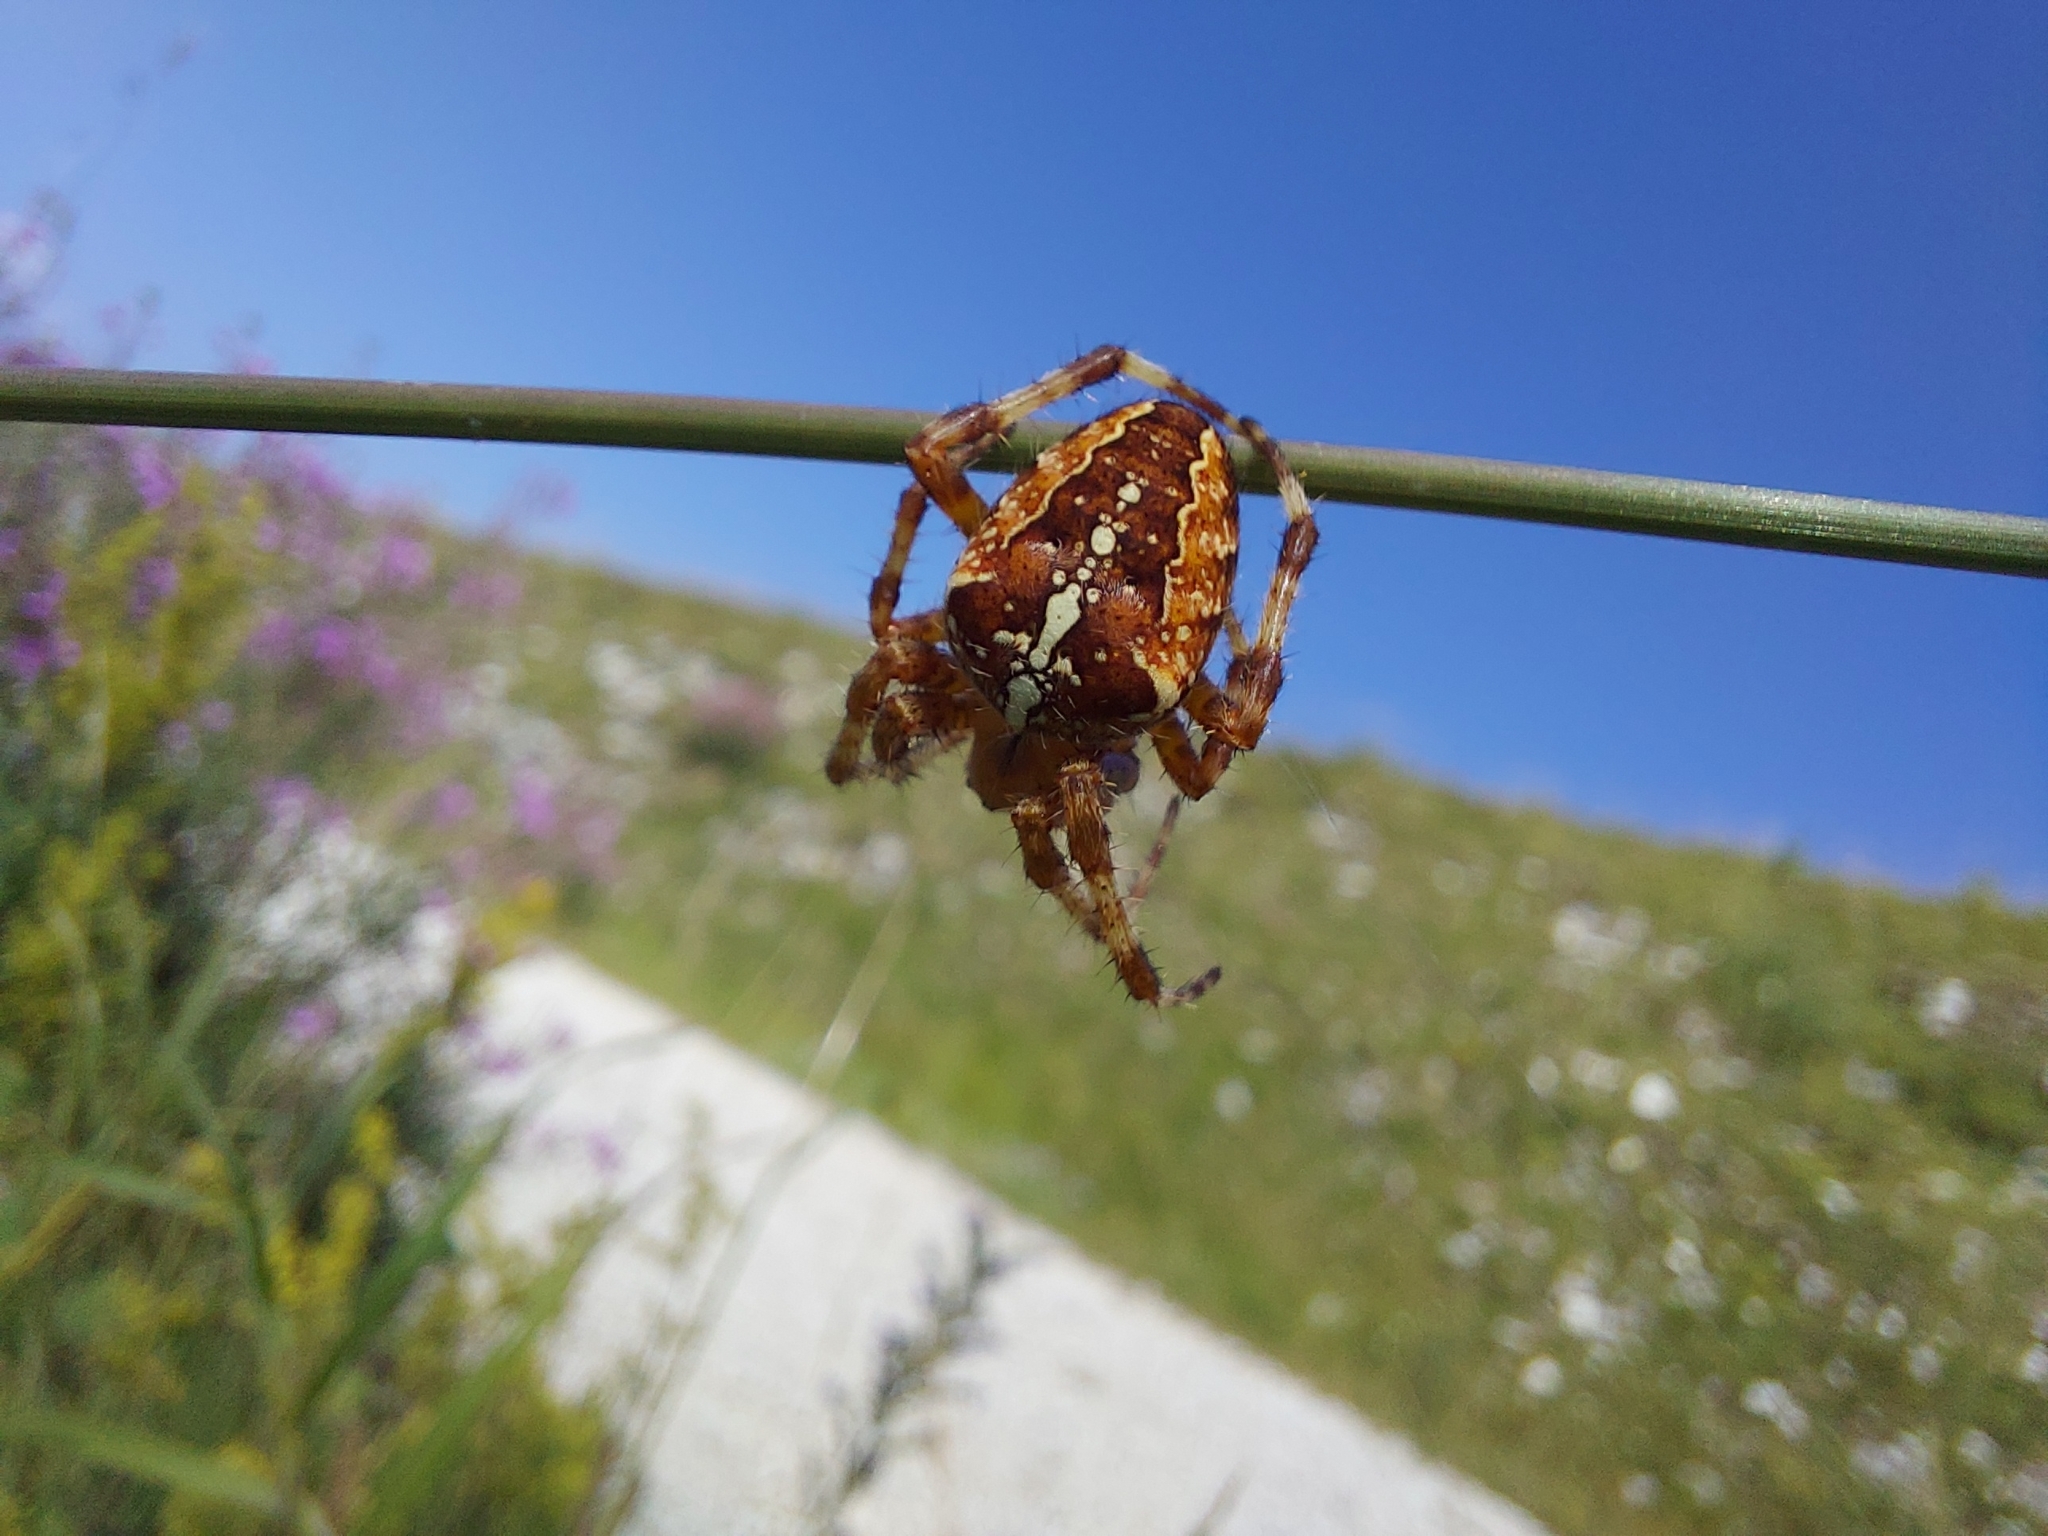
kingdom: Animalia
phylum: Arthropoda
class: Arachnida
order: Araneae
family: Araneidae
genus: Araneus
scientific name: Araneus diadematus
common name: Cross orbweaver
